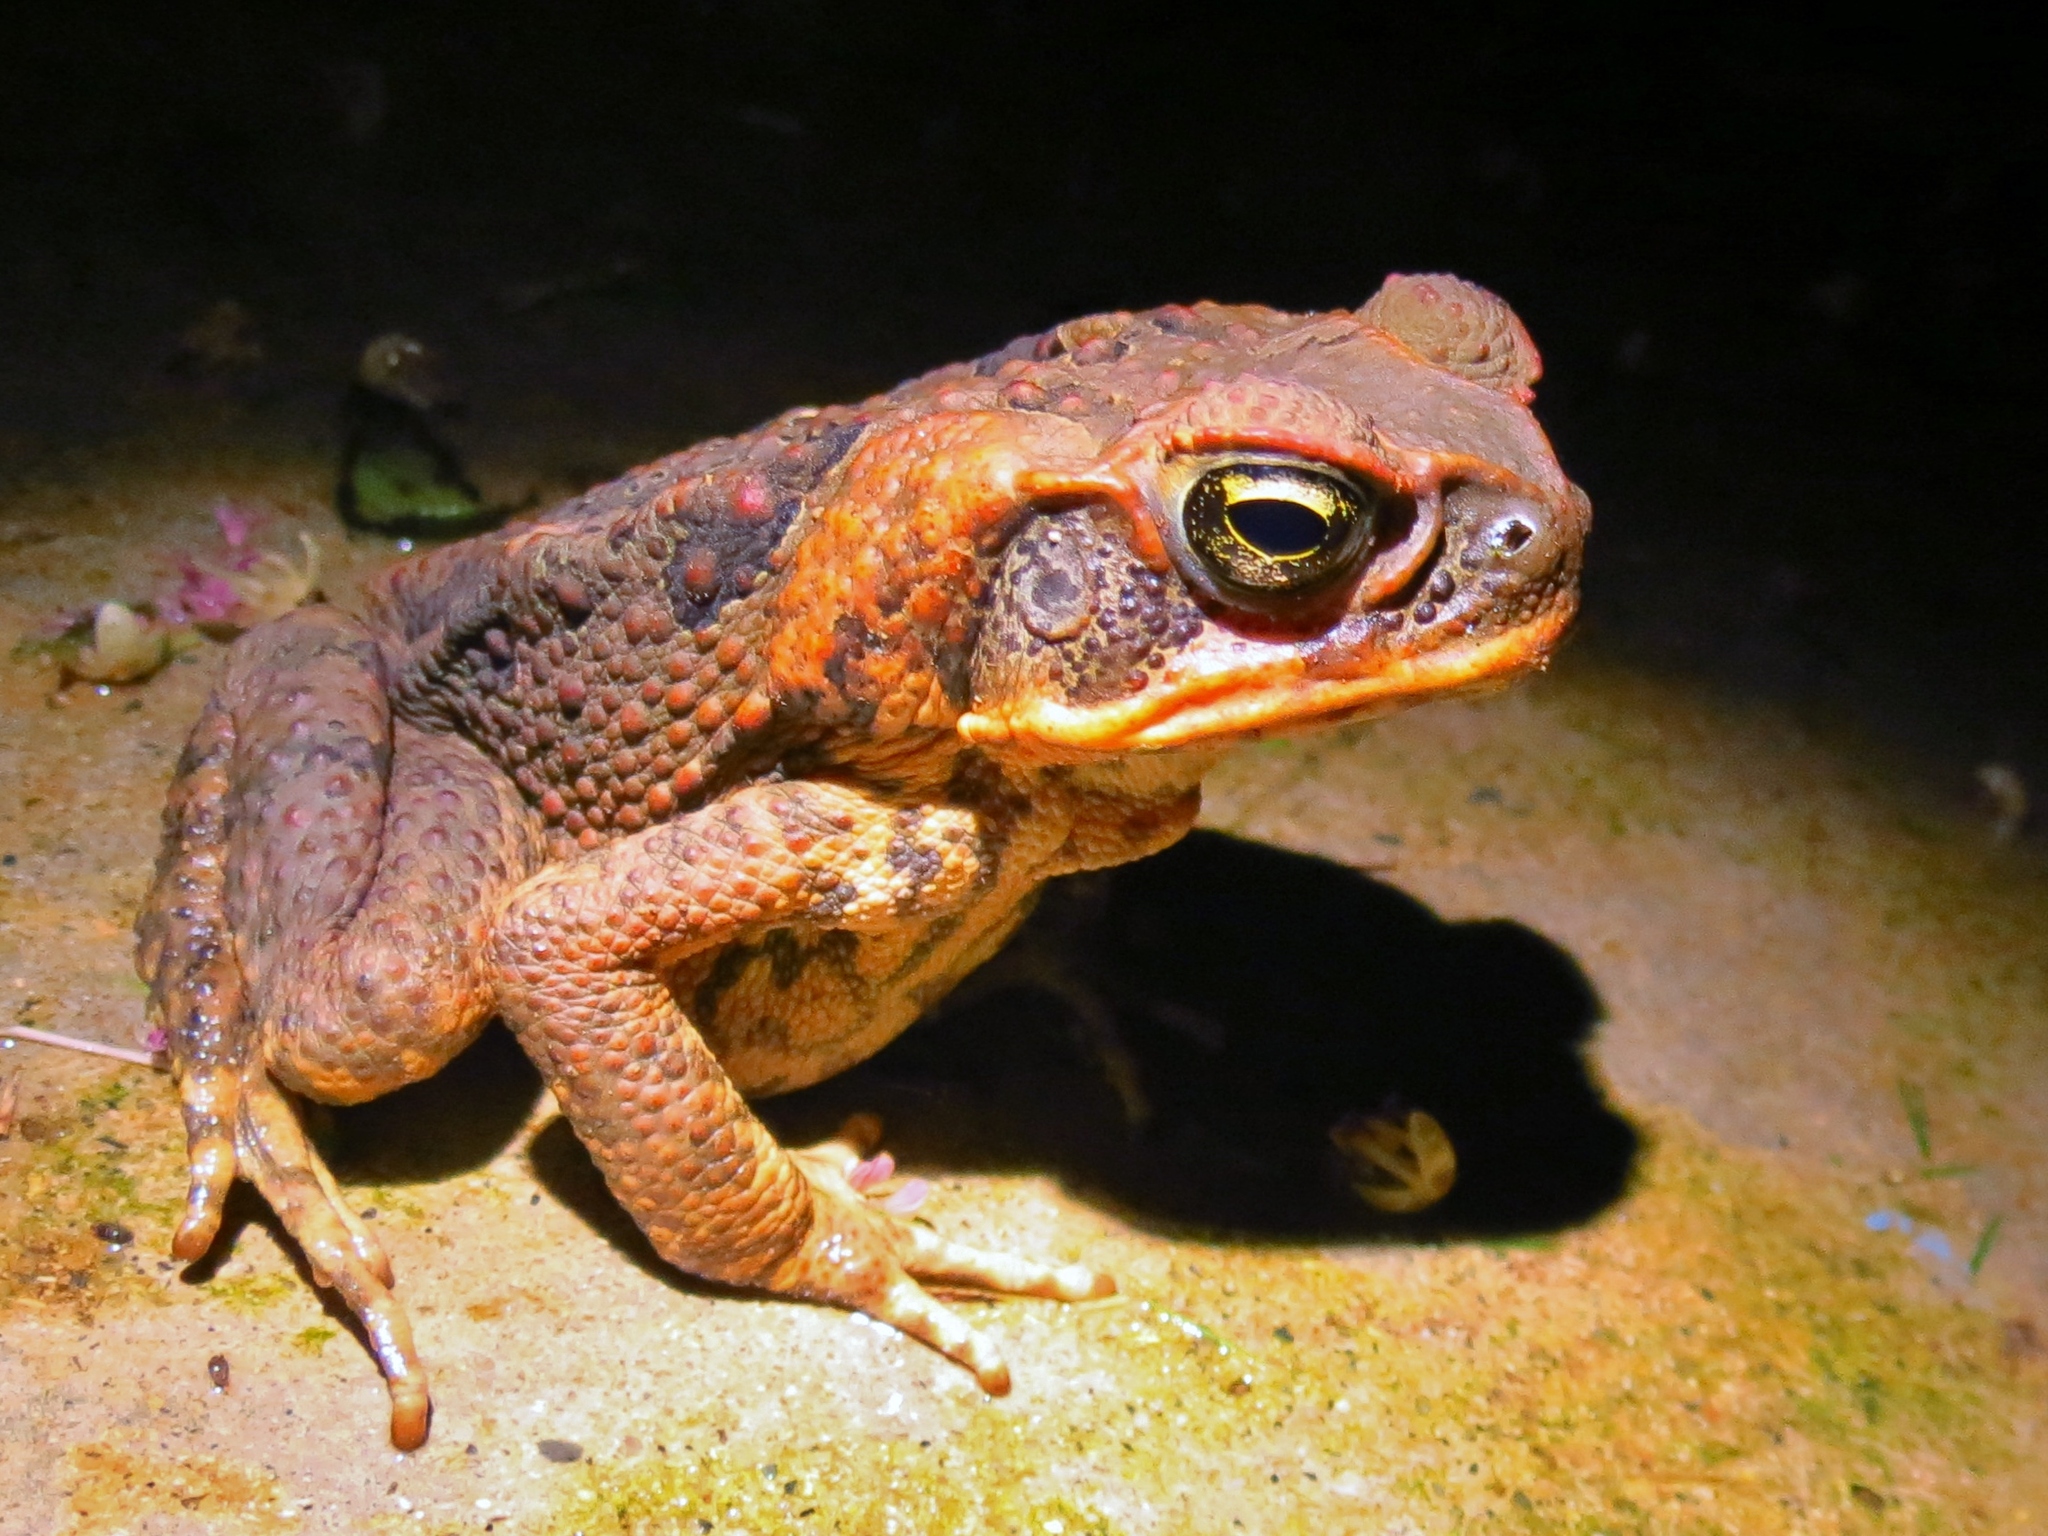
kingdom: Animalia
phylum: Chordata
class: Amphibia
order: Anura
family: Bufonidae
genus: Rhinella
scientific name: Rhinella marina
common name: Cane toad
